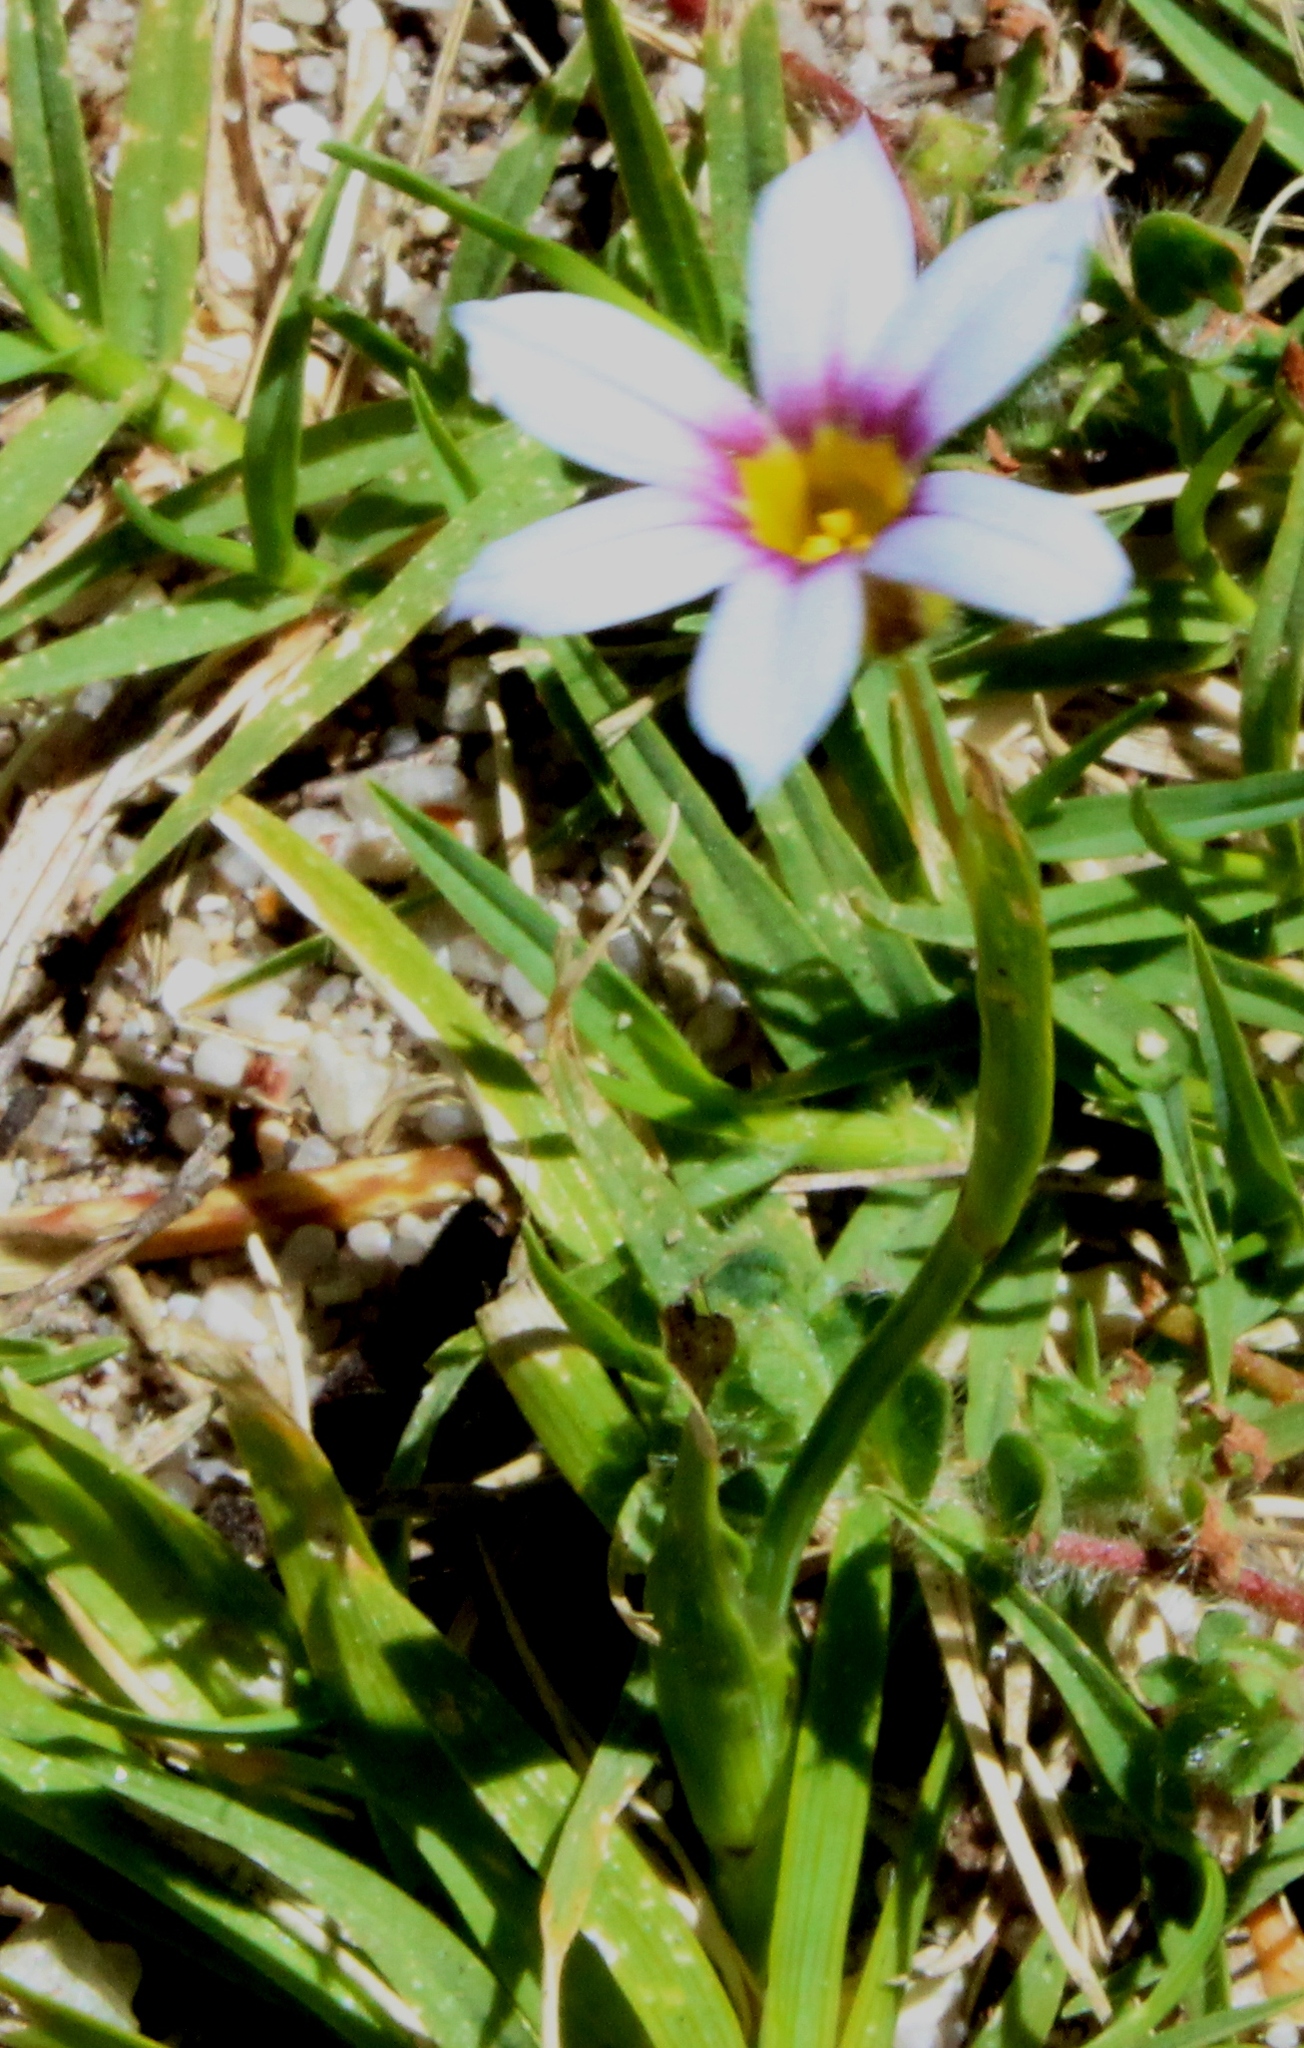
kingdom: Plantae
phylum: Tracheophyta
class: Liliopsida
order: Asparagales
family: Iridaceae
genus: Sisyrinchium
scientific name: Sisyrinchium micranthum
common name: Bermuda pigroot
